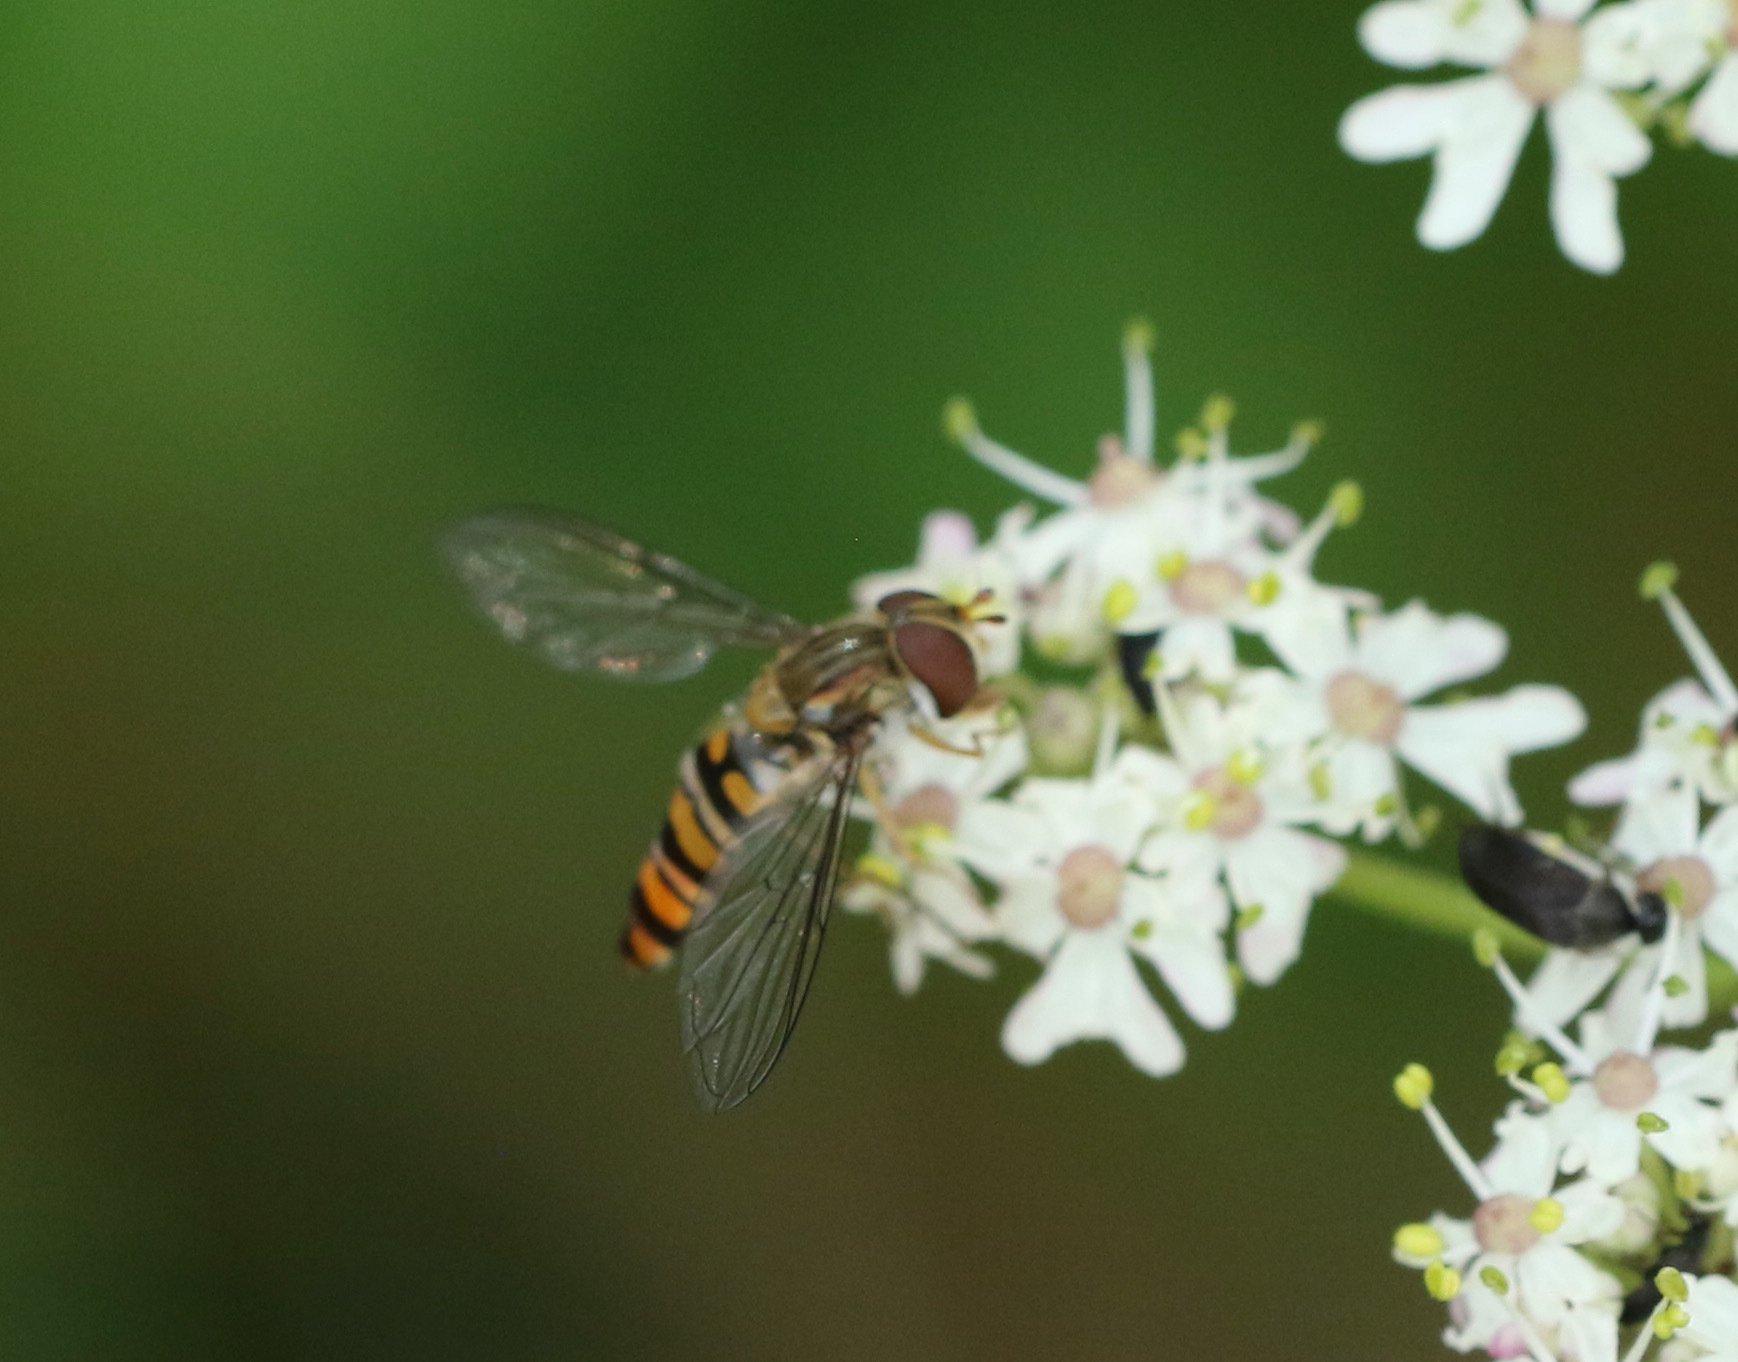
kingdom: Animalia
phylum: Arthropoda
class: Insecta
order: Diptera
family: Syrphidae
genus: Episyrphus
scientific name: Episyrphus balteatus
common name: Marmalade hoverfly
